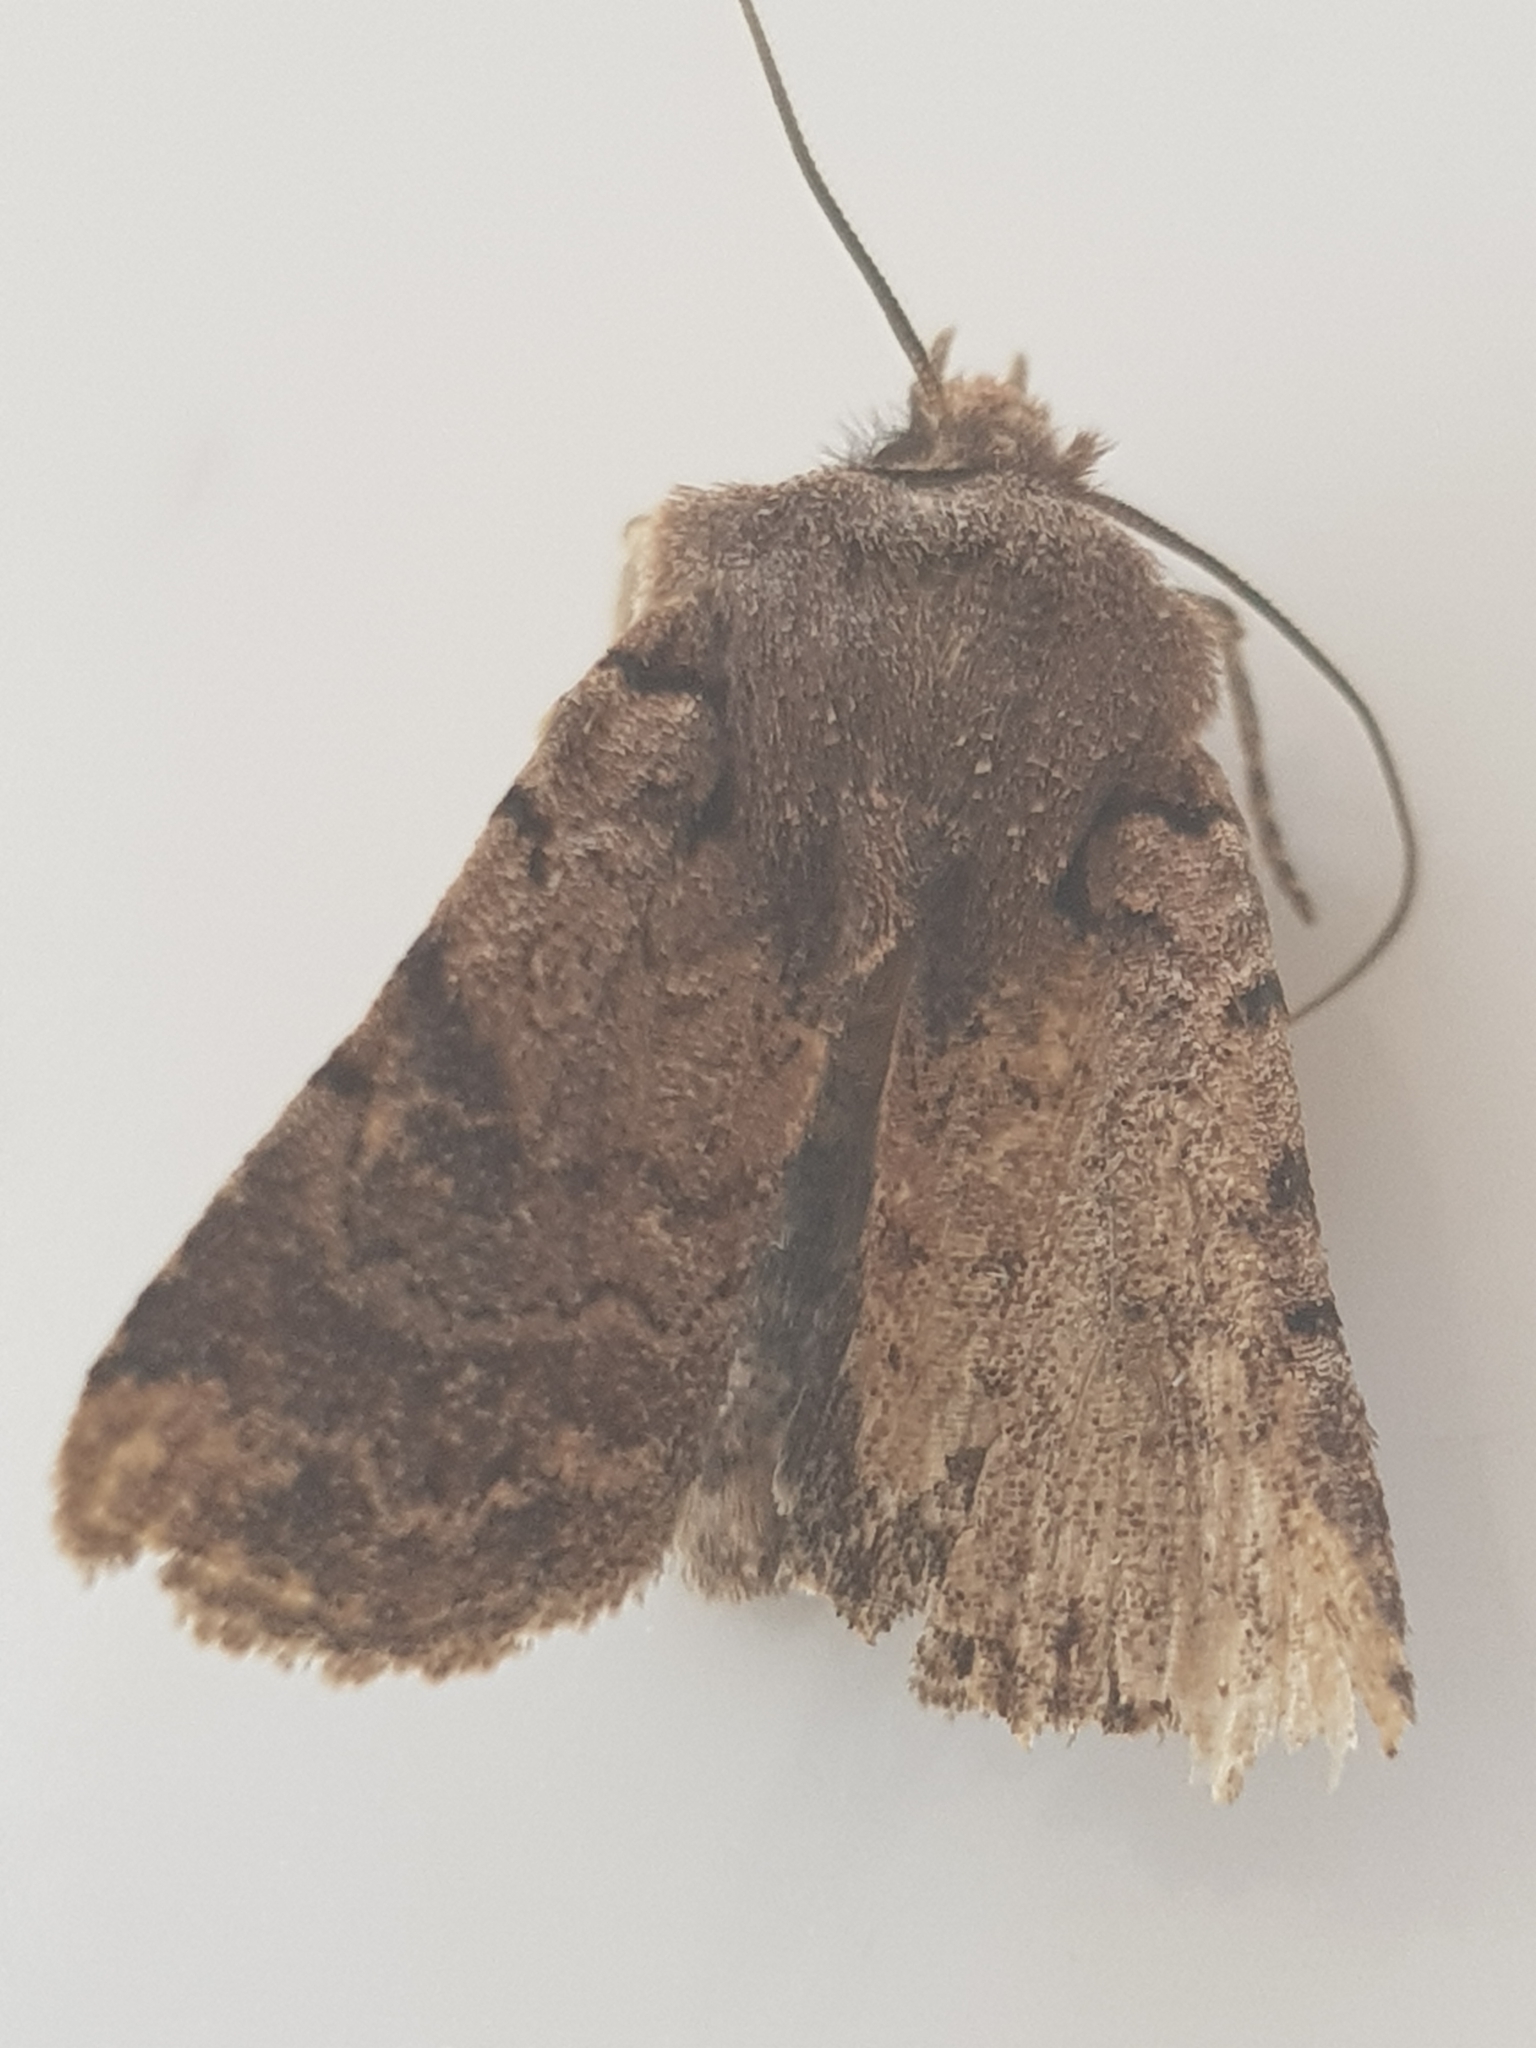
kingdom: Animalia
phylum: Arthropoda
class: Insecta
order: Lepidoptera
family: Noctuidae
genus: Austramathes
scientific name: Austramathes
